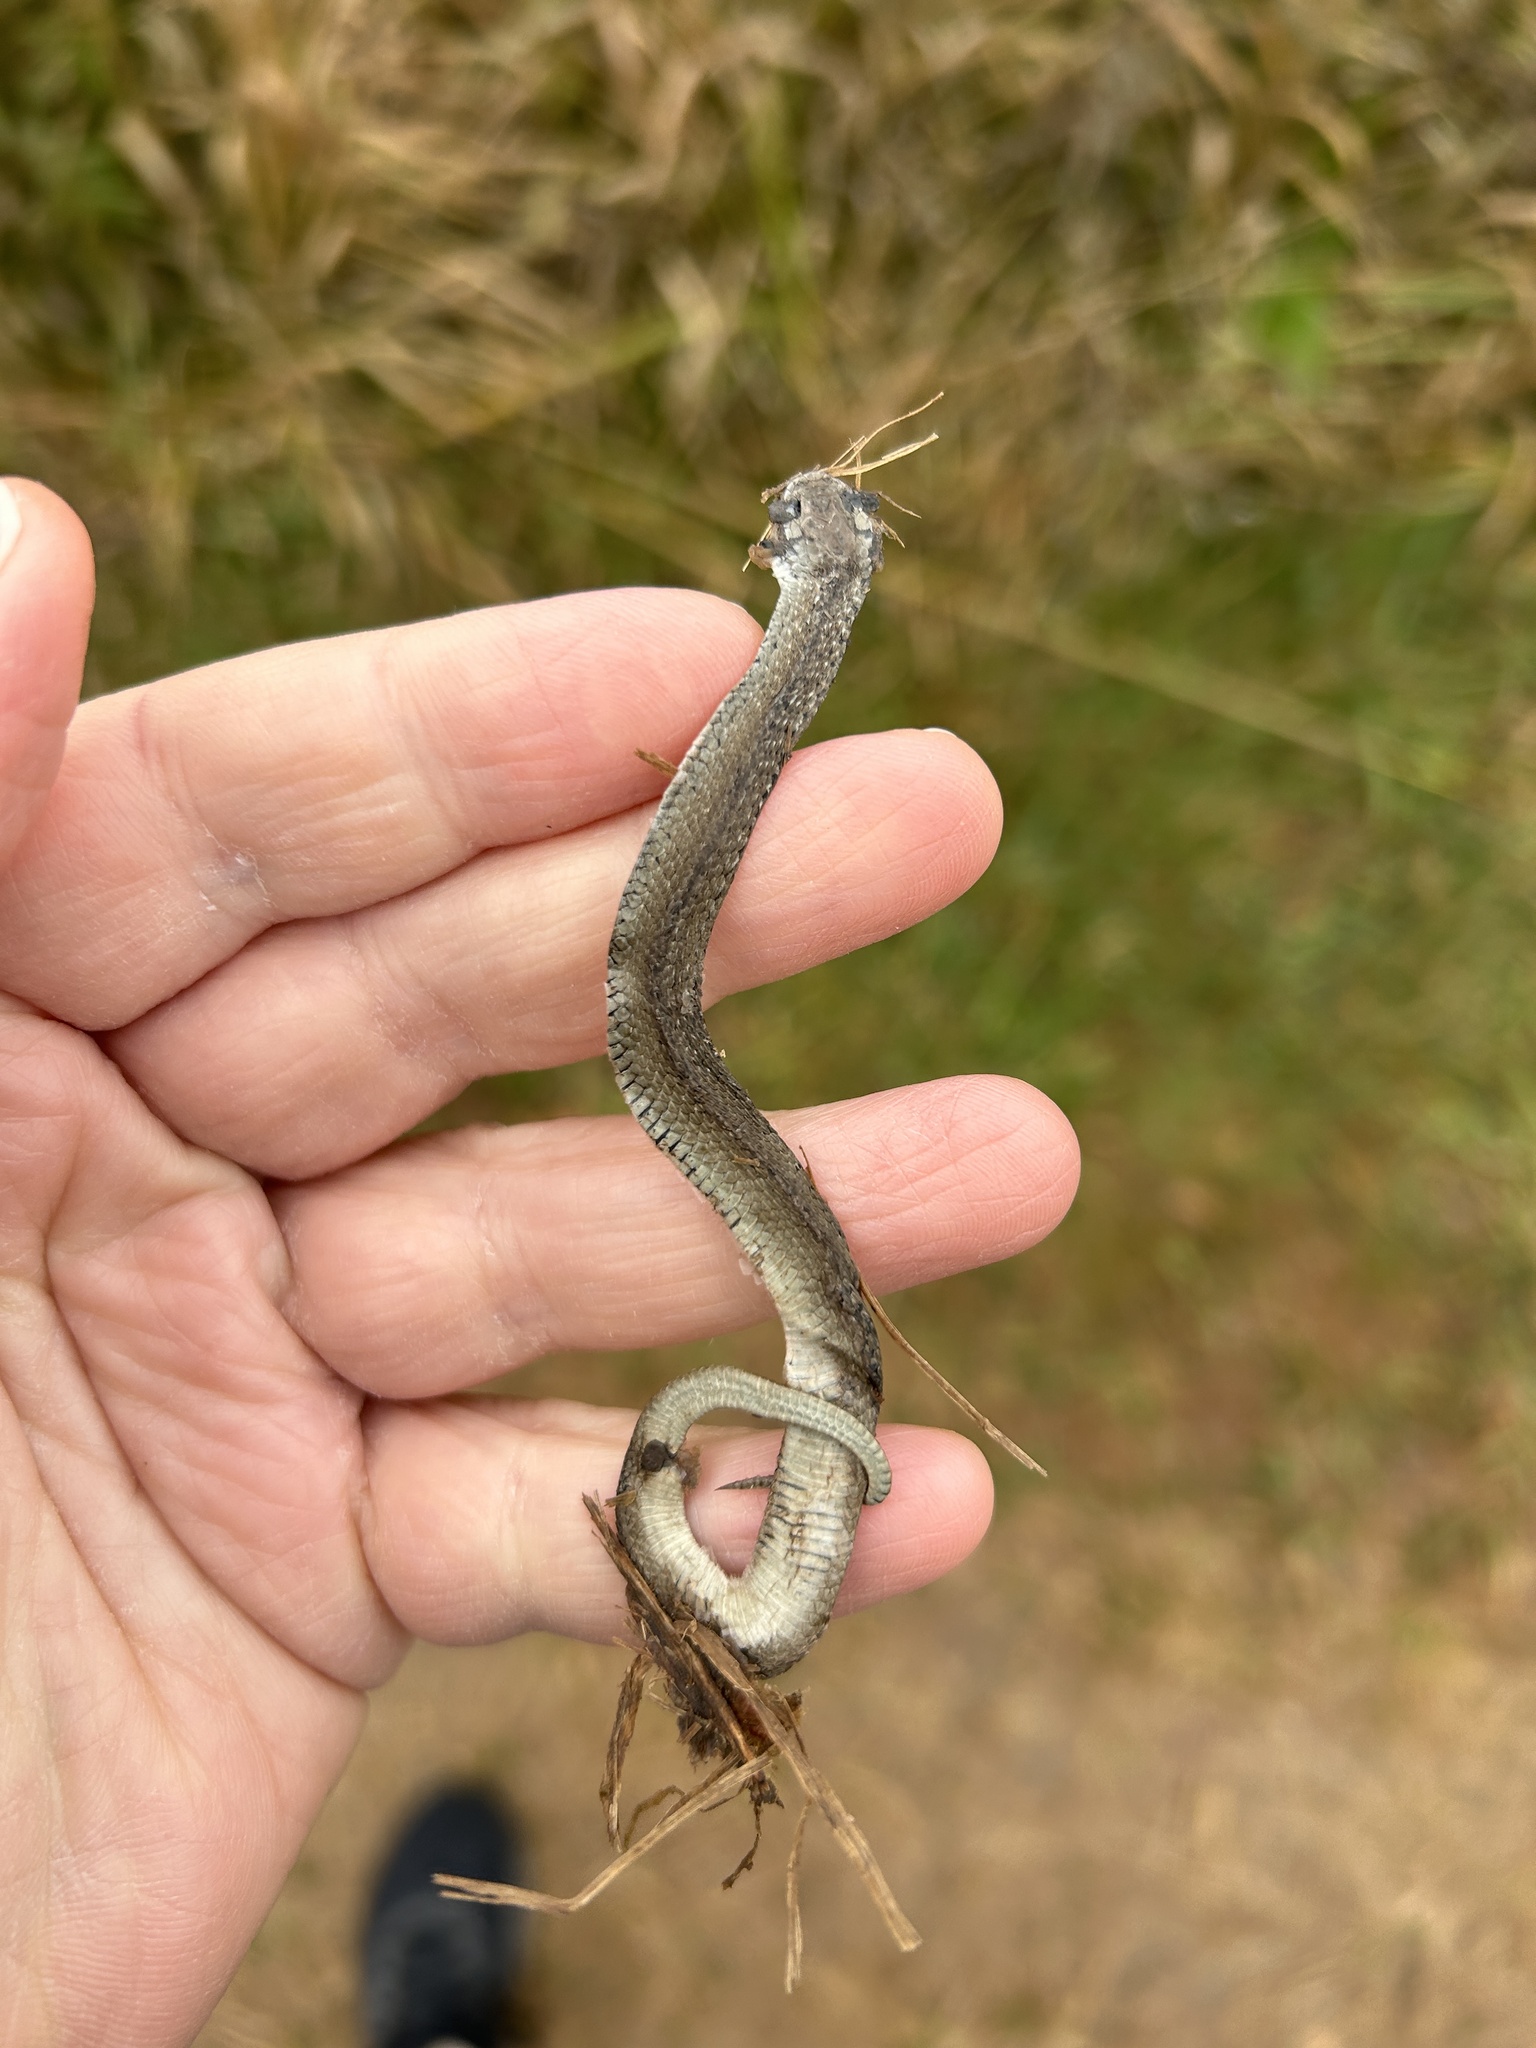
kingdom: Animalia
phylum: Chordata
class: Squamata
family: Colubridae
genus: Storeria
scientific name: Storeria dekayi
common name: (dekay’s) brown snake
